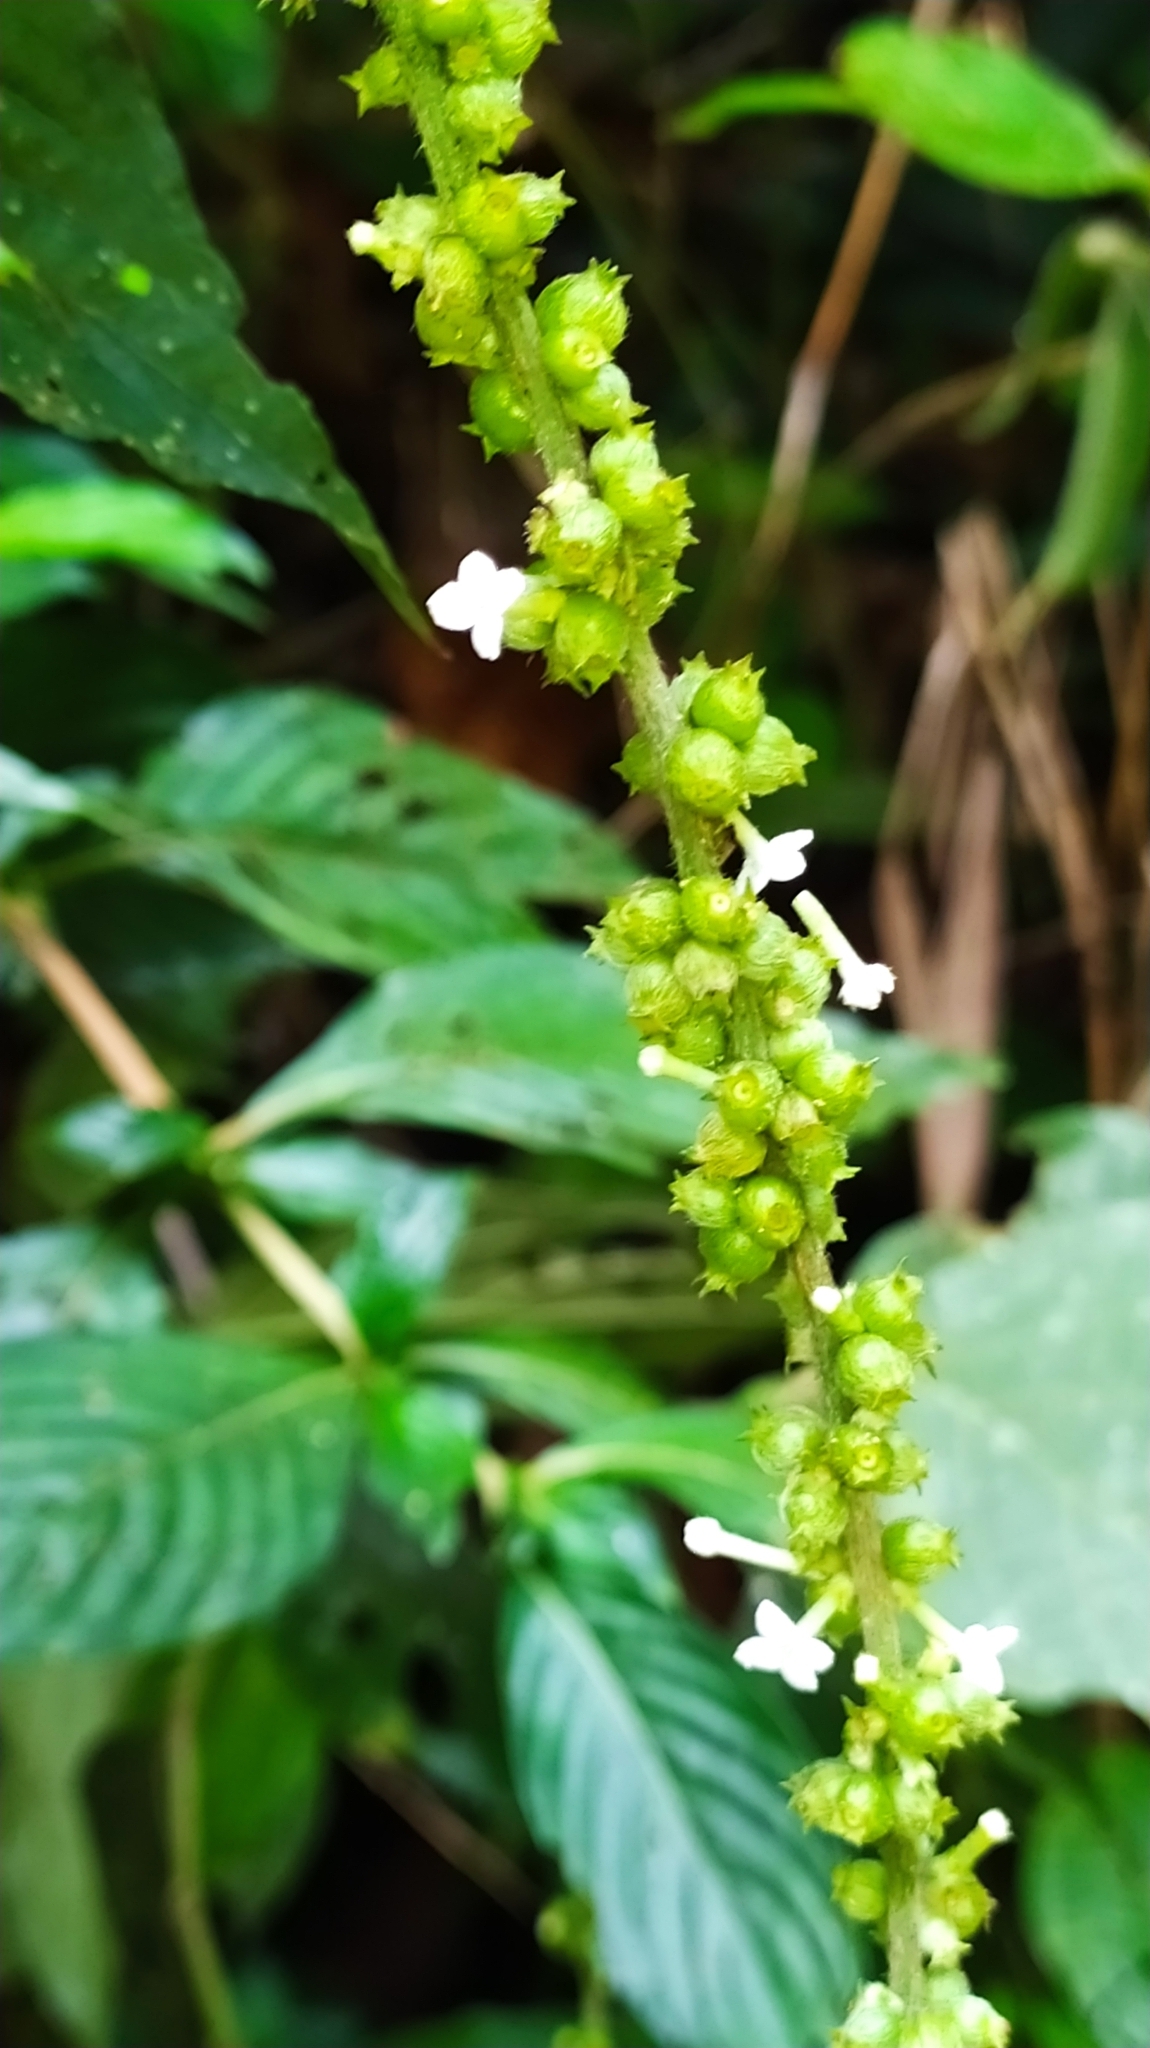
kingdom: Plantae
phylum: Tracheophyta
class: Magnoliopsida
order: Gentianales
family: Rubiaceae
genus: Gonzalagunia
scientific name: Gonzalagunia dicocca
